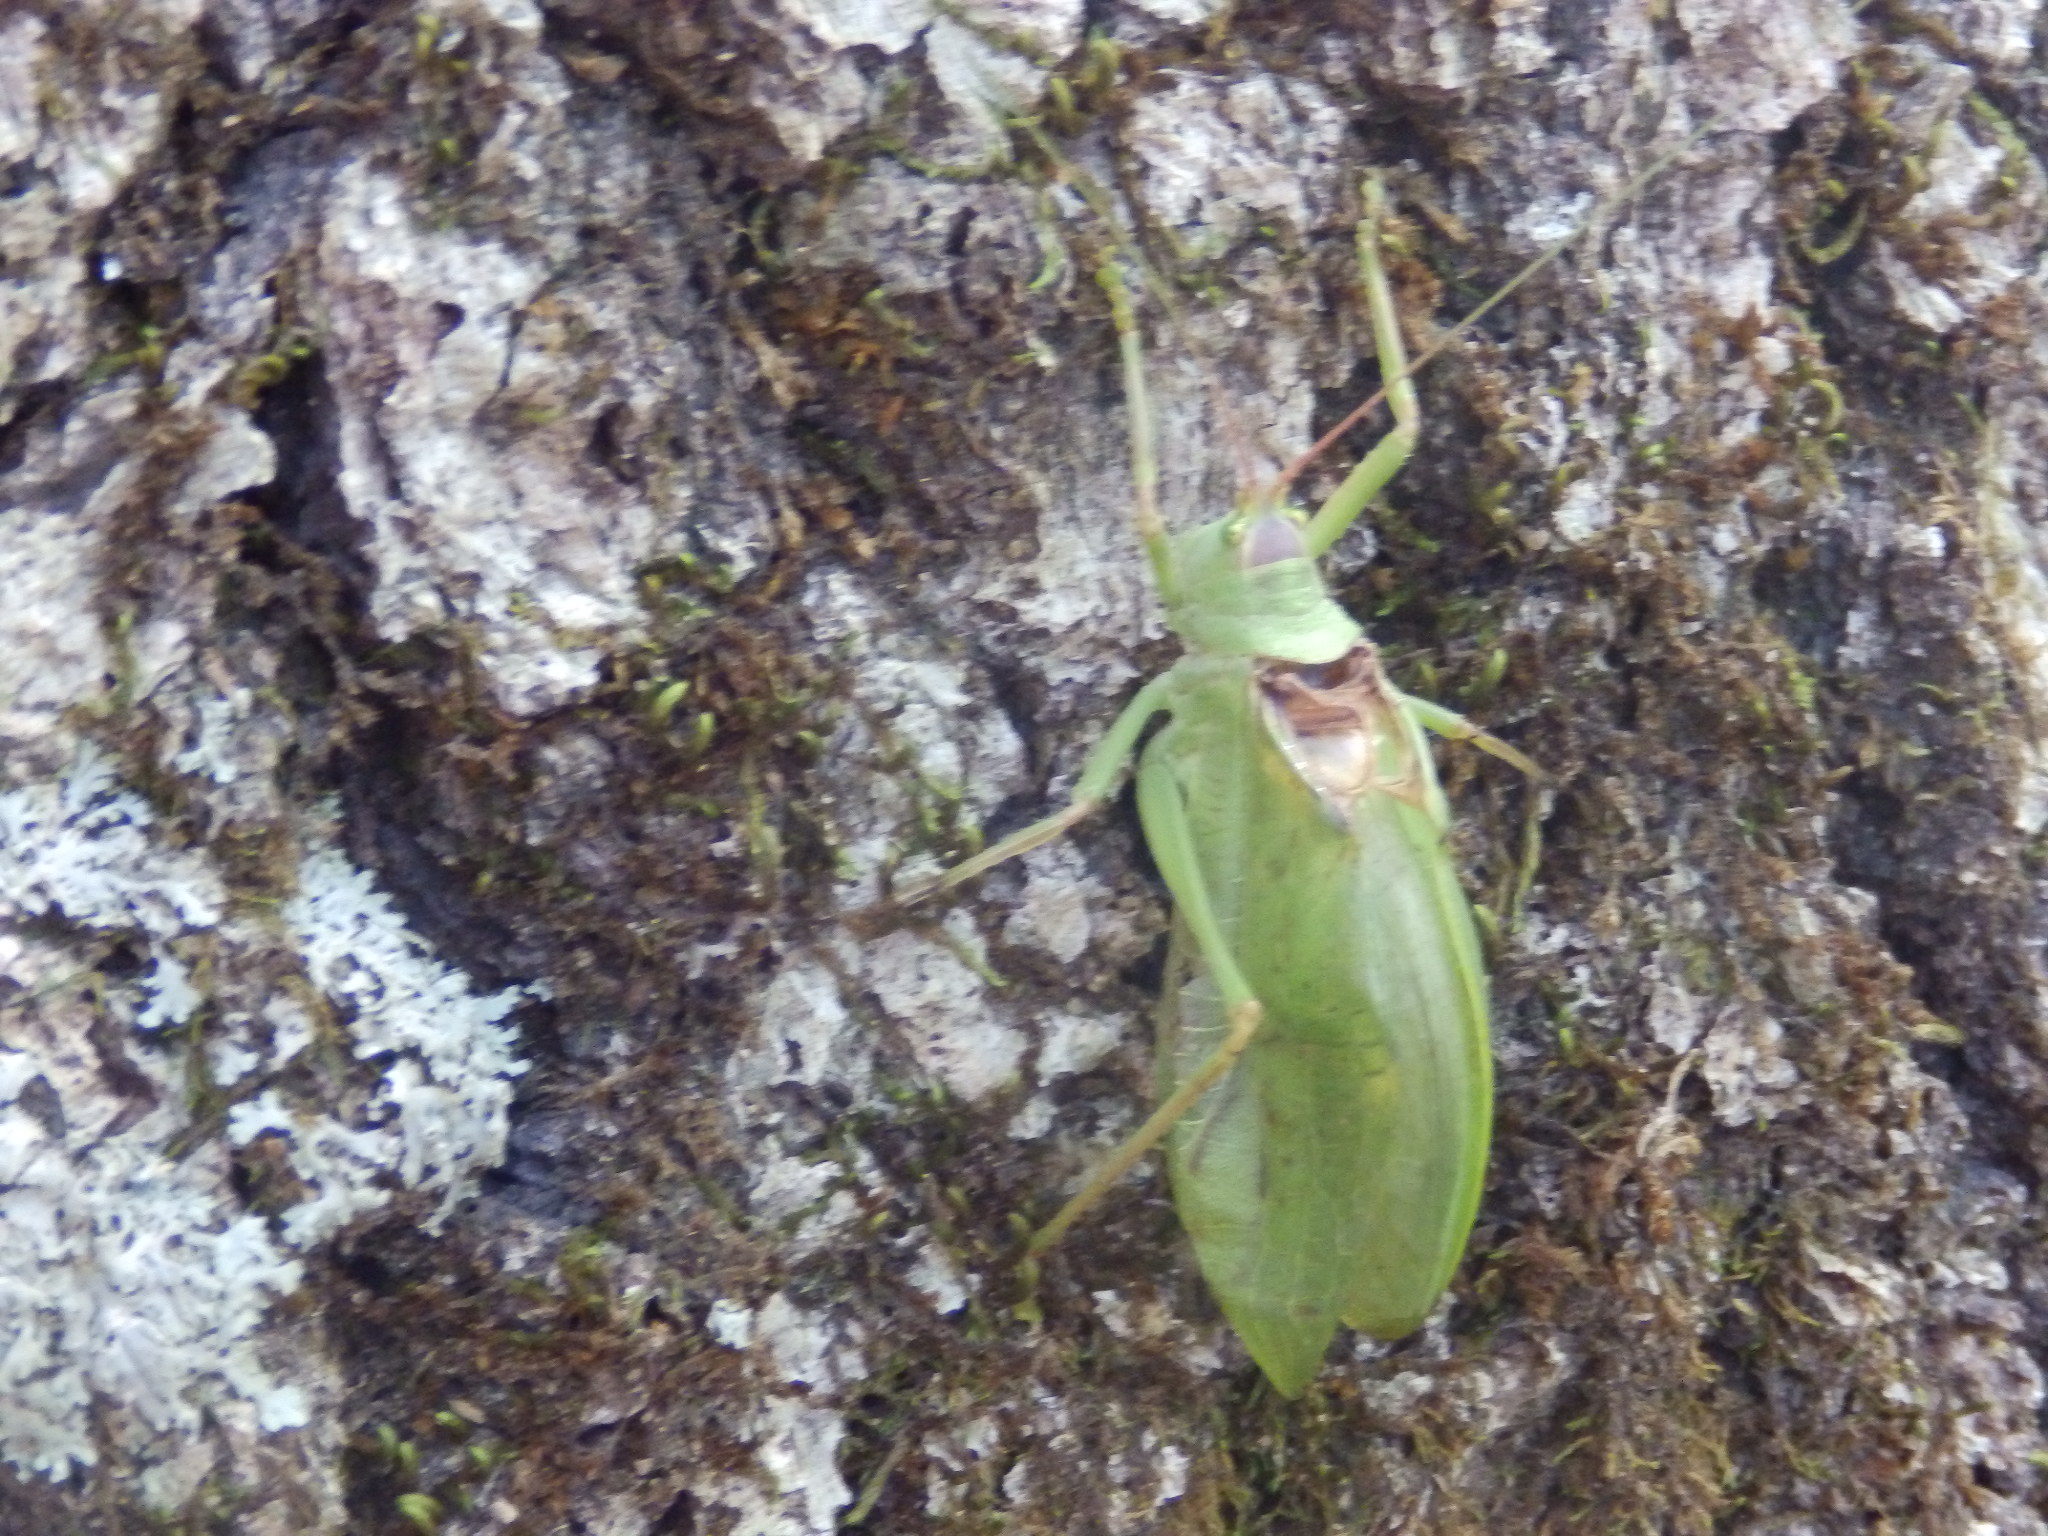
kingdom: Animalia
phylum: Arthropoda
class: Insecta
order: Orthoptera
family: Tettigoniidae
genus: Pterophylla
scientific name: Pterophylla camellifolia
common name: Common true katydid
